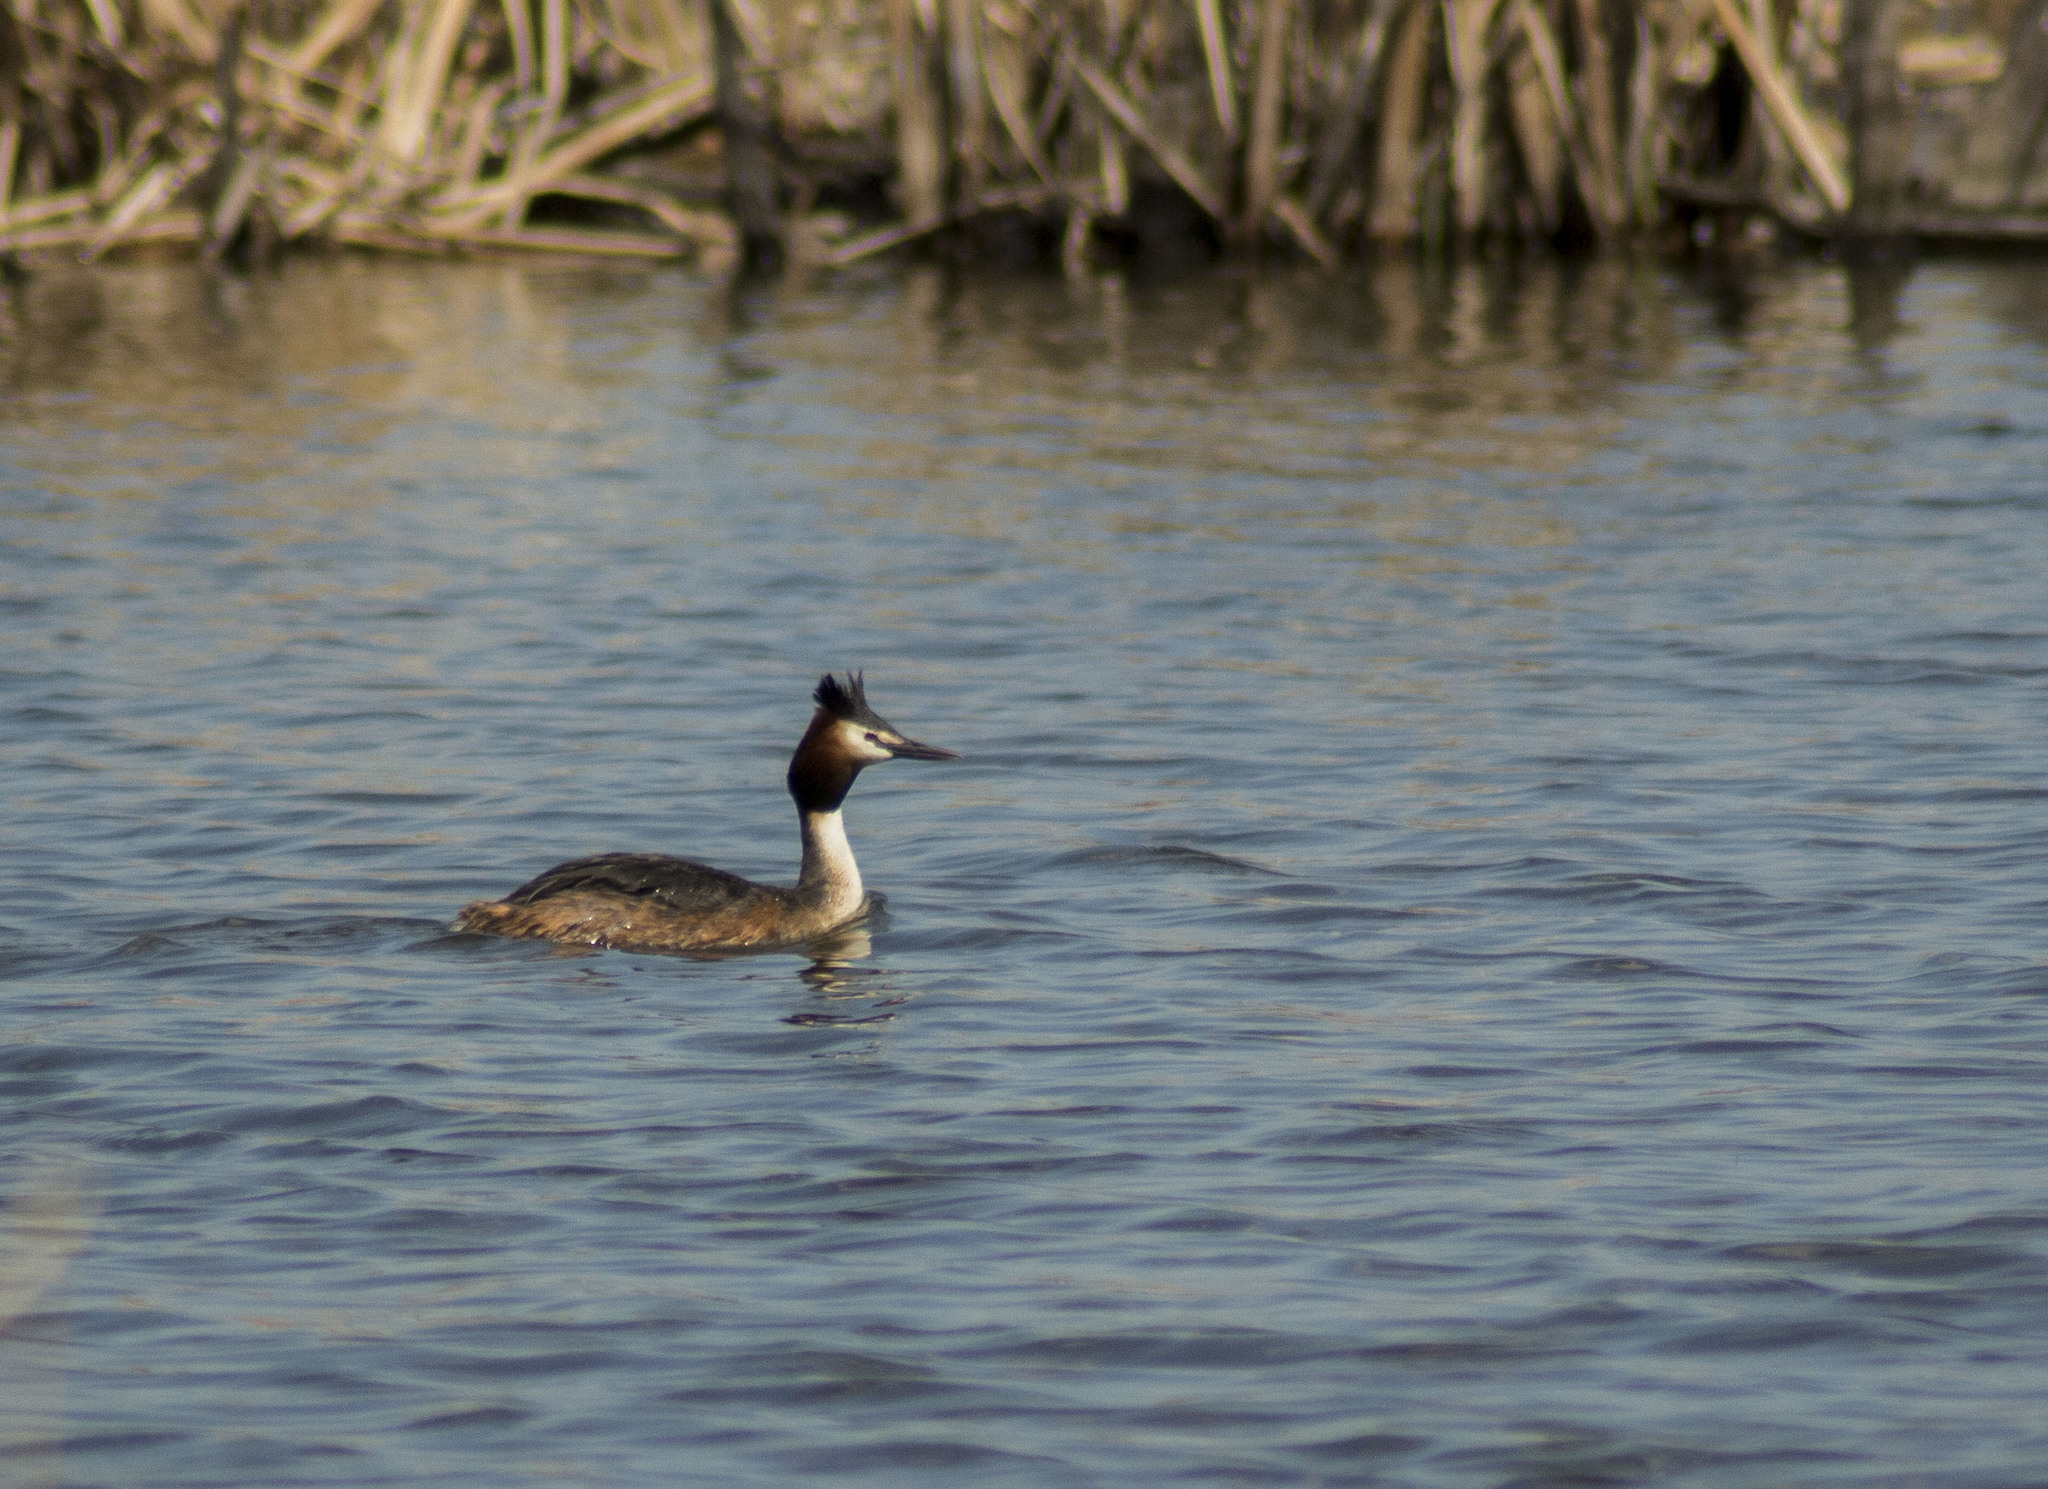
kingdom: Animalia
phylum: Chordata
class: Aves
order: Podicipediformes
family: Podicipedidae
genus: Podiceps
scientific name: Podiceps cristatus
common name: Great crested grebe
